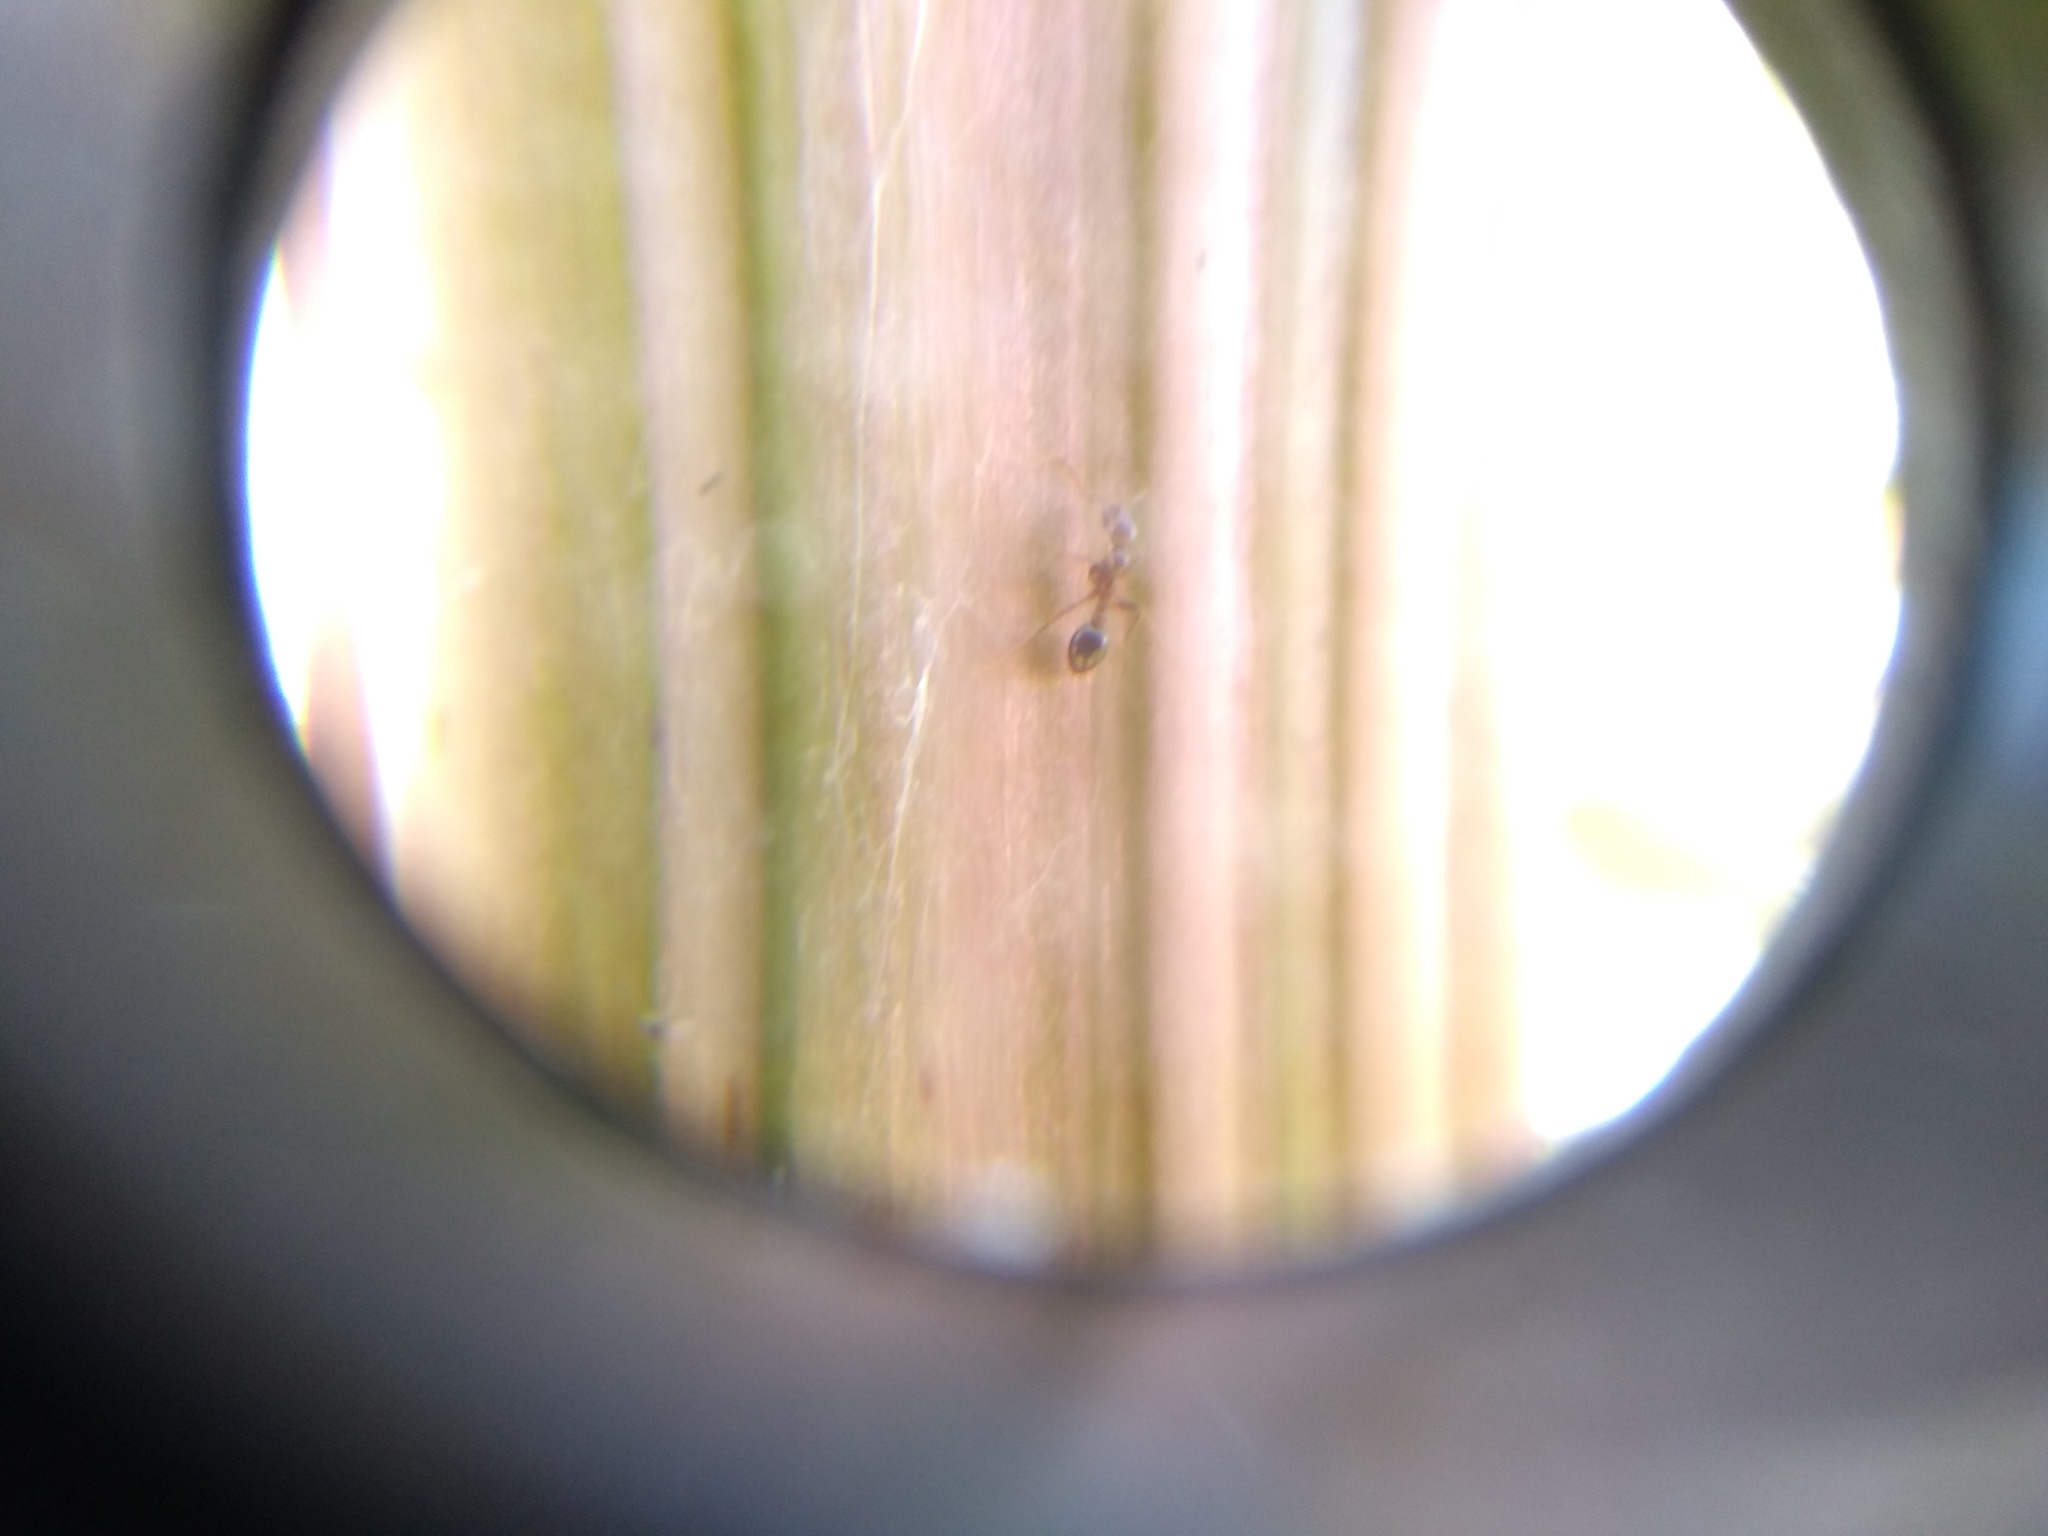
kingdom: Animalia
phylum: Arthropoda
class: Insecta
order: Hymenoptera
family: Formicidae
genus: Solenopsis
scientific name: Solenopsis invicta
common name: Red imported fire ant
